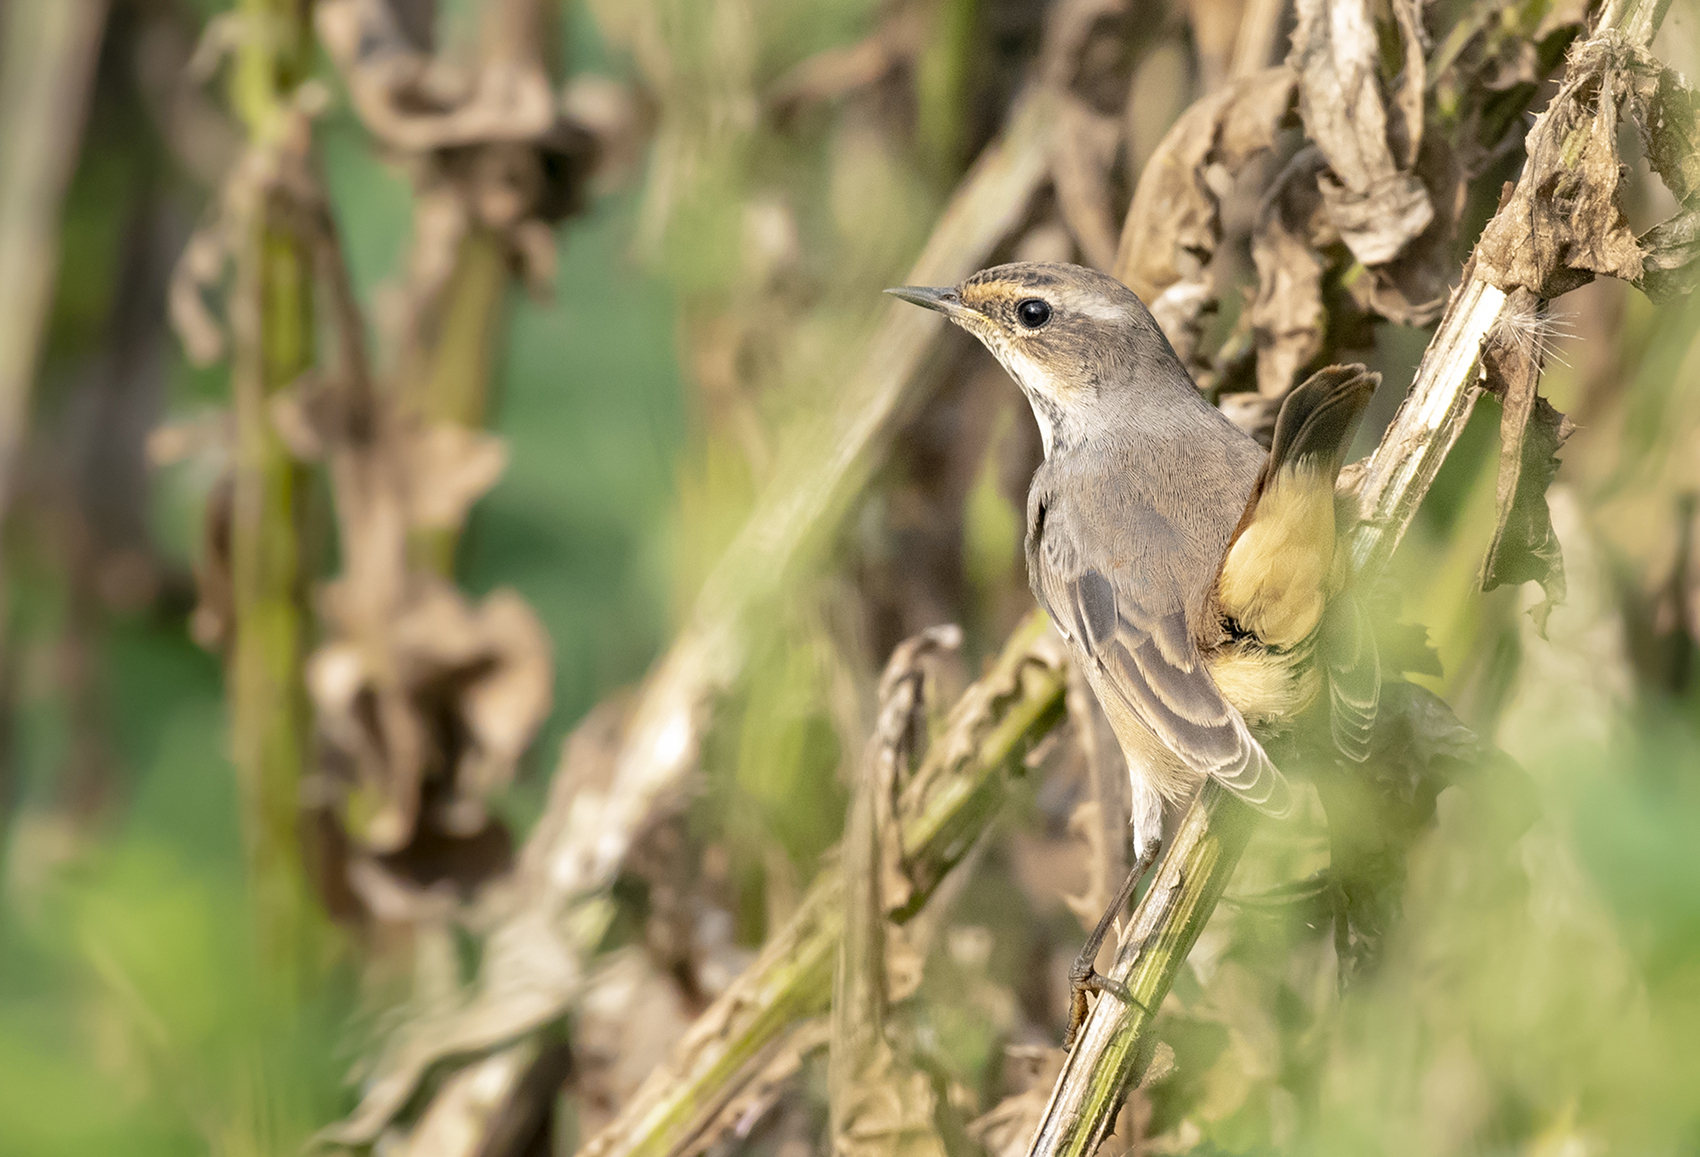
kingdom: Animalia
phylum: Chordata
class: Aves
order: Passeriformes
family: Muscicapidae
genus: Luscinia
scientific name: Luscinia svecica
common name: Bluethroat
